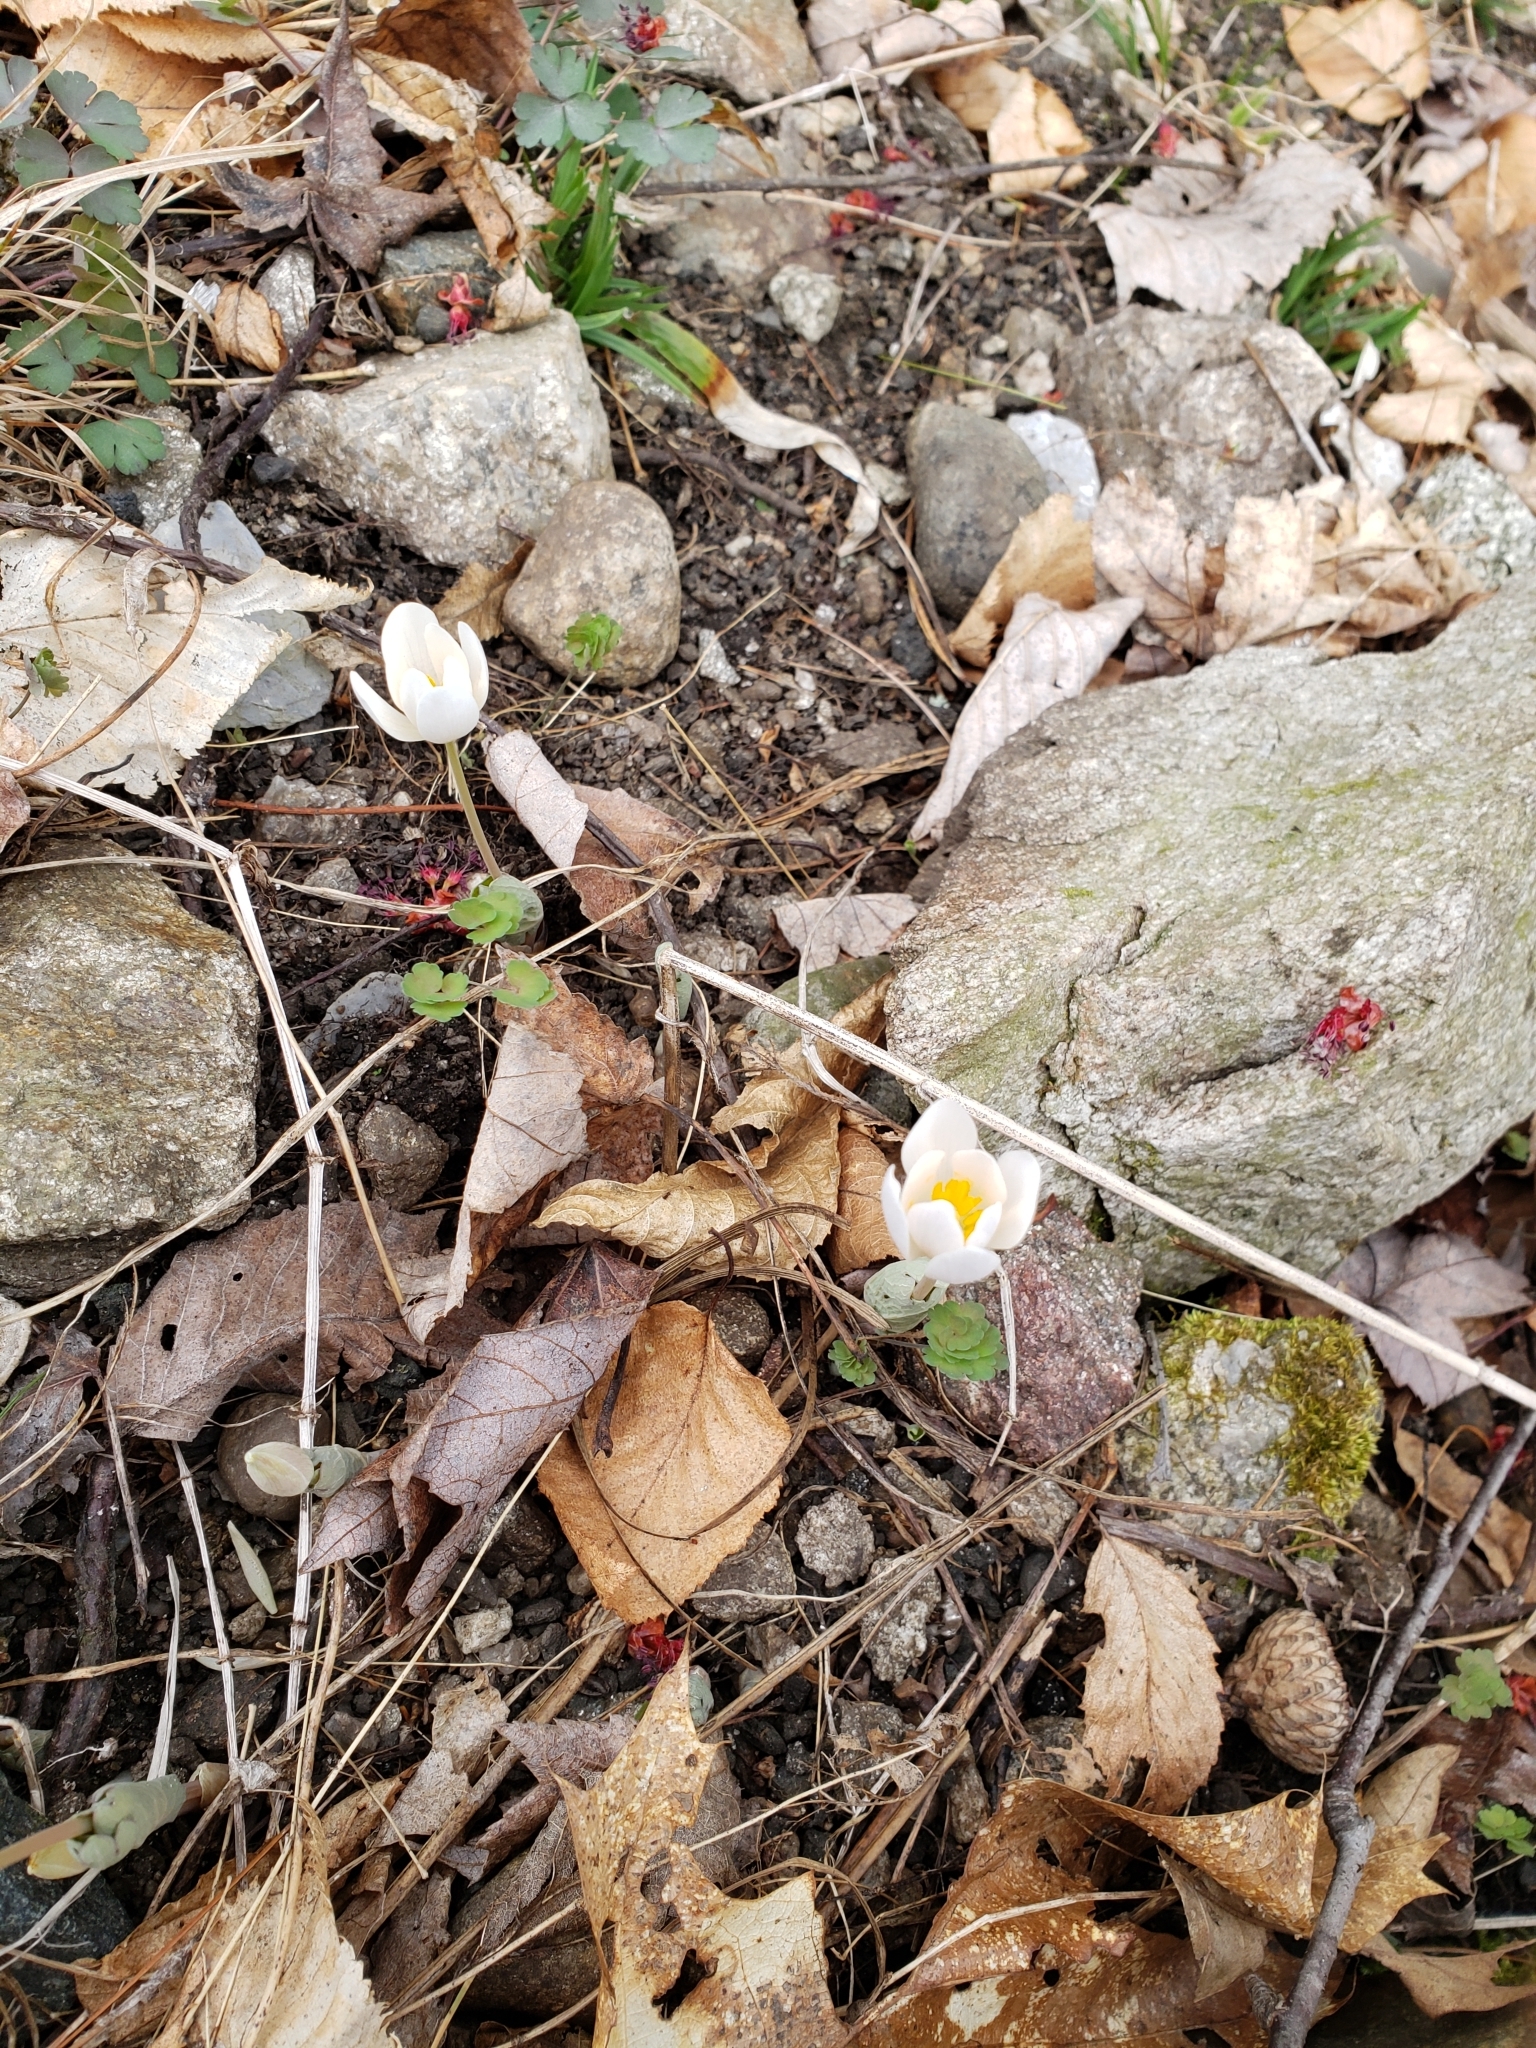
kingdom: Plantae
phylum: Tracheophyta
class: Magnoliopsida
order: Ranunculales
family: Papaveraceae
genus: Sanguinaria
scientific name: Sanguinaria canadensis
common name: Bloodroot
